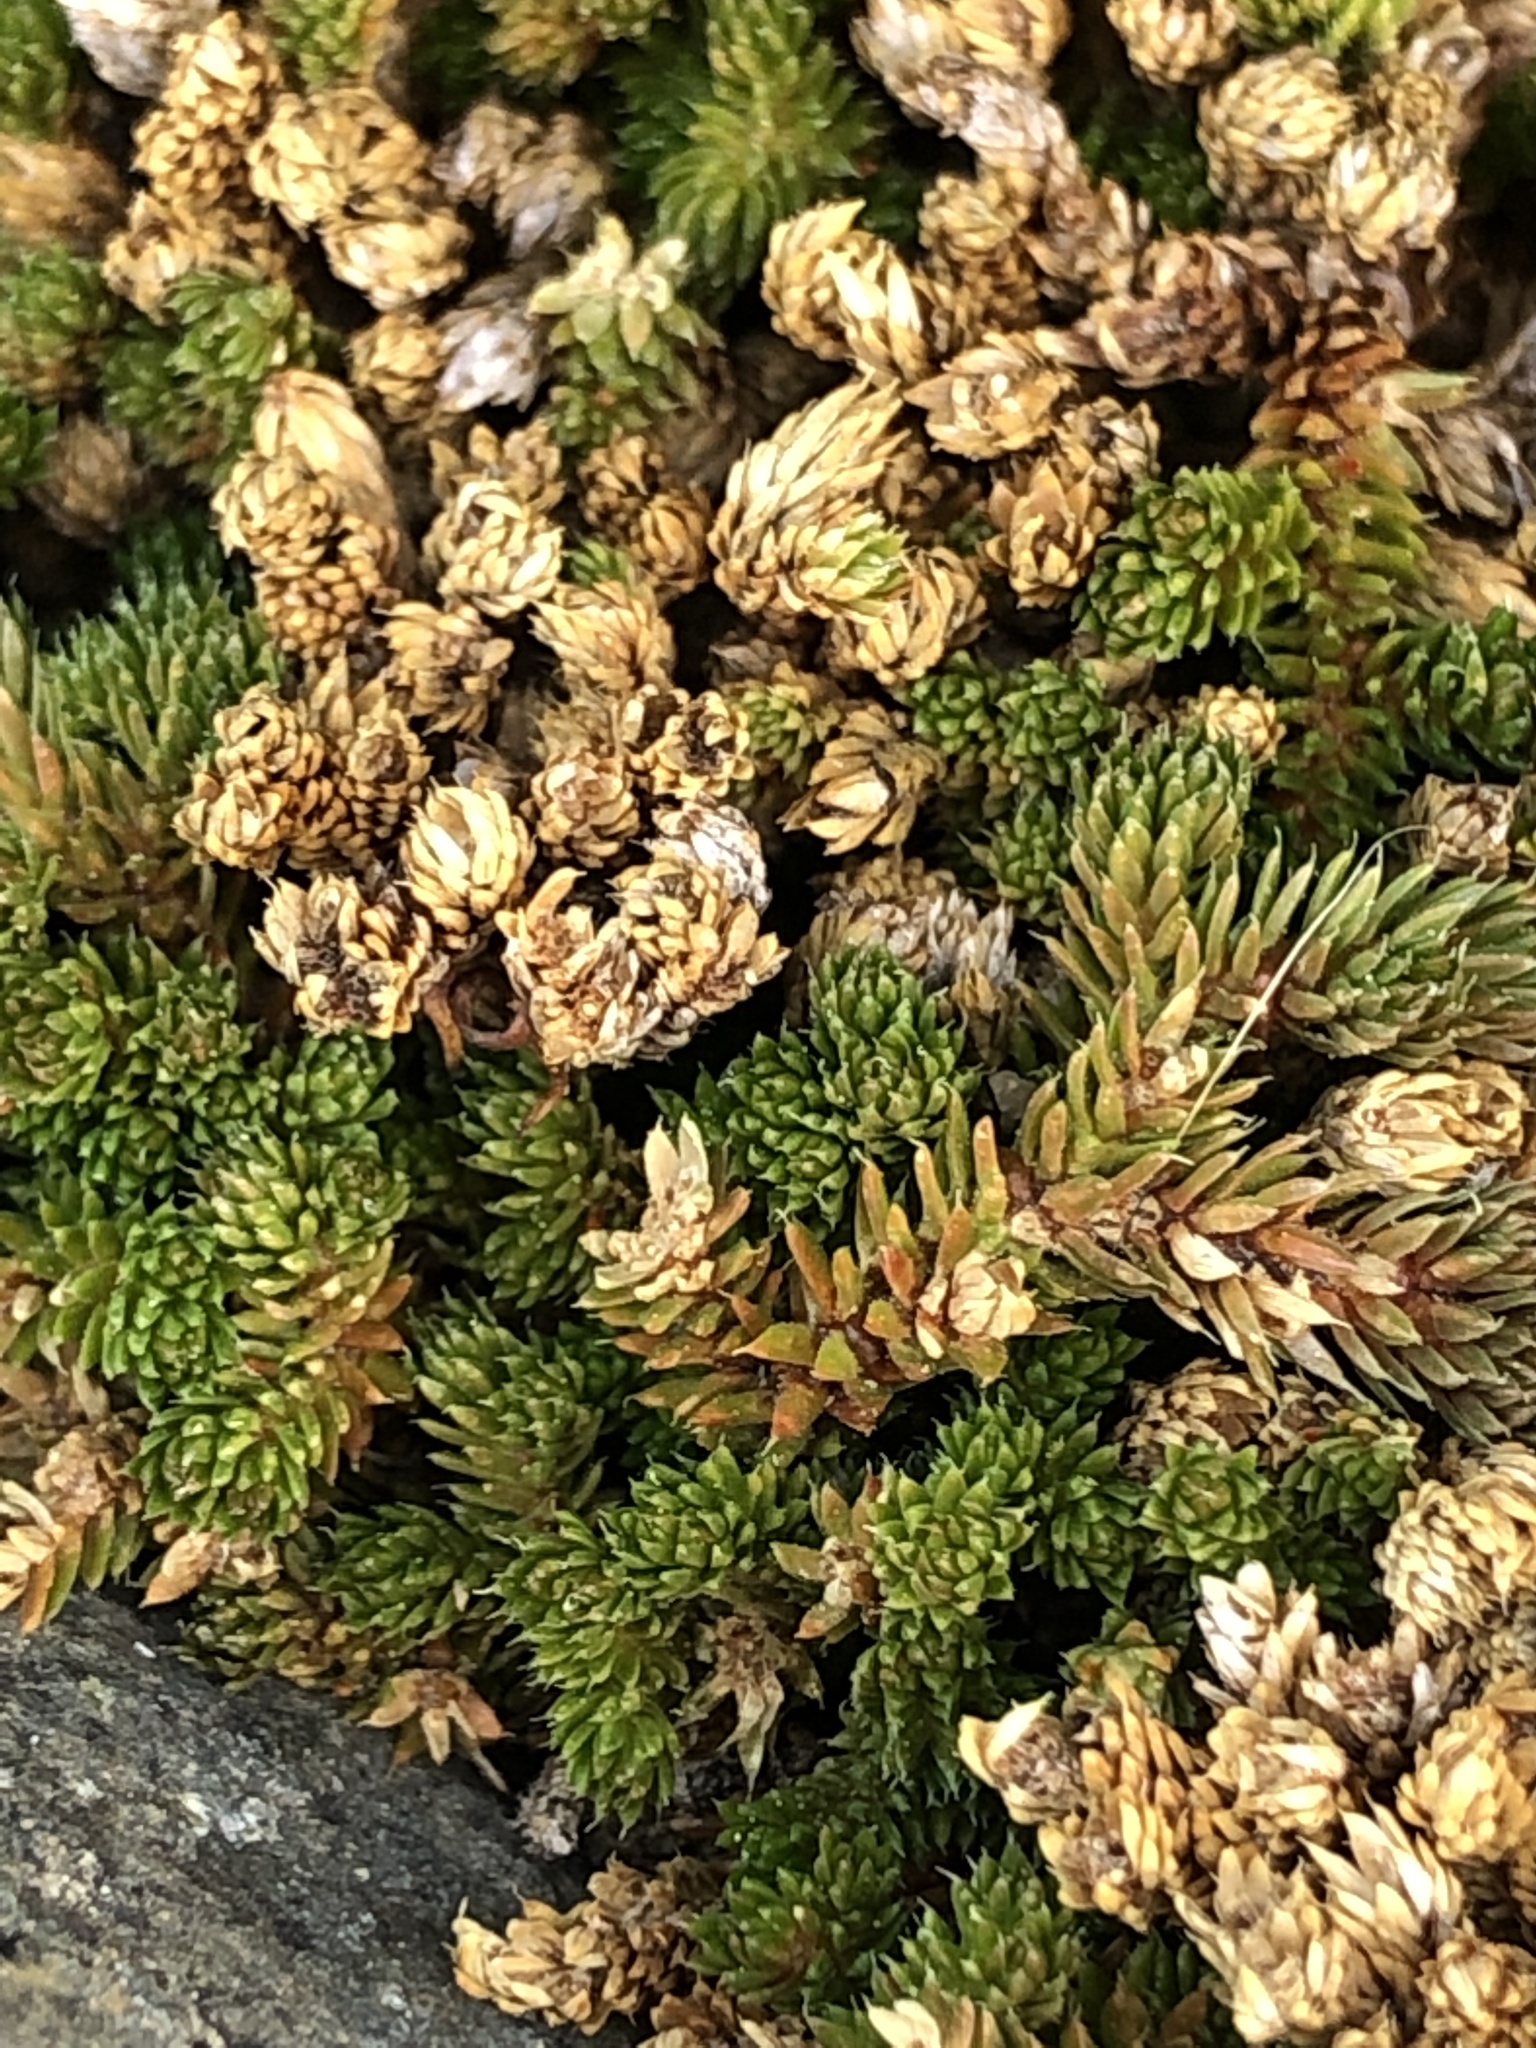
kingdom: Plantae
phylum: Tracheophyta
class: Lycopodiopsida
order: Selaginellales
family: Selaginellaceae
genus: Selaginella
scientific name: Selaginella watsonii
